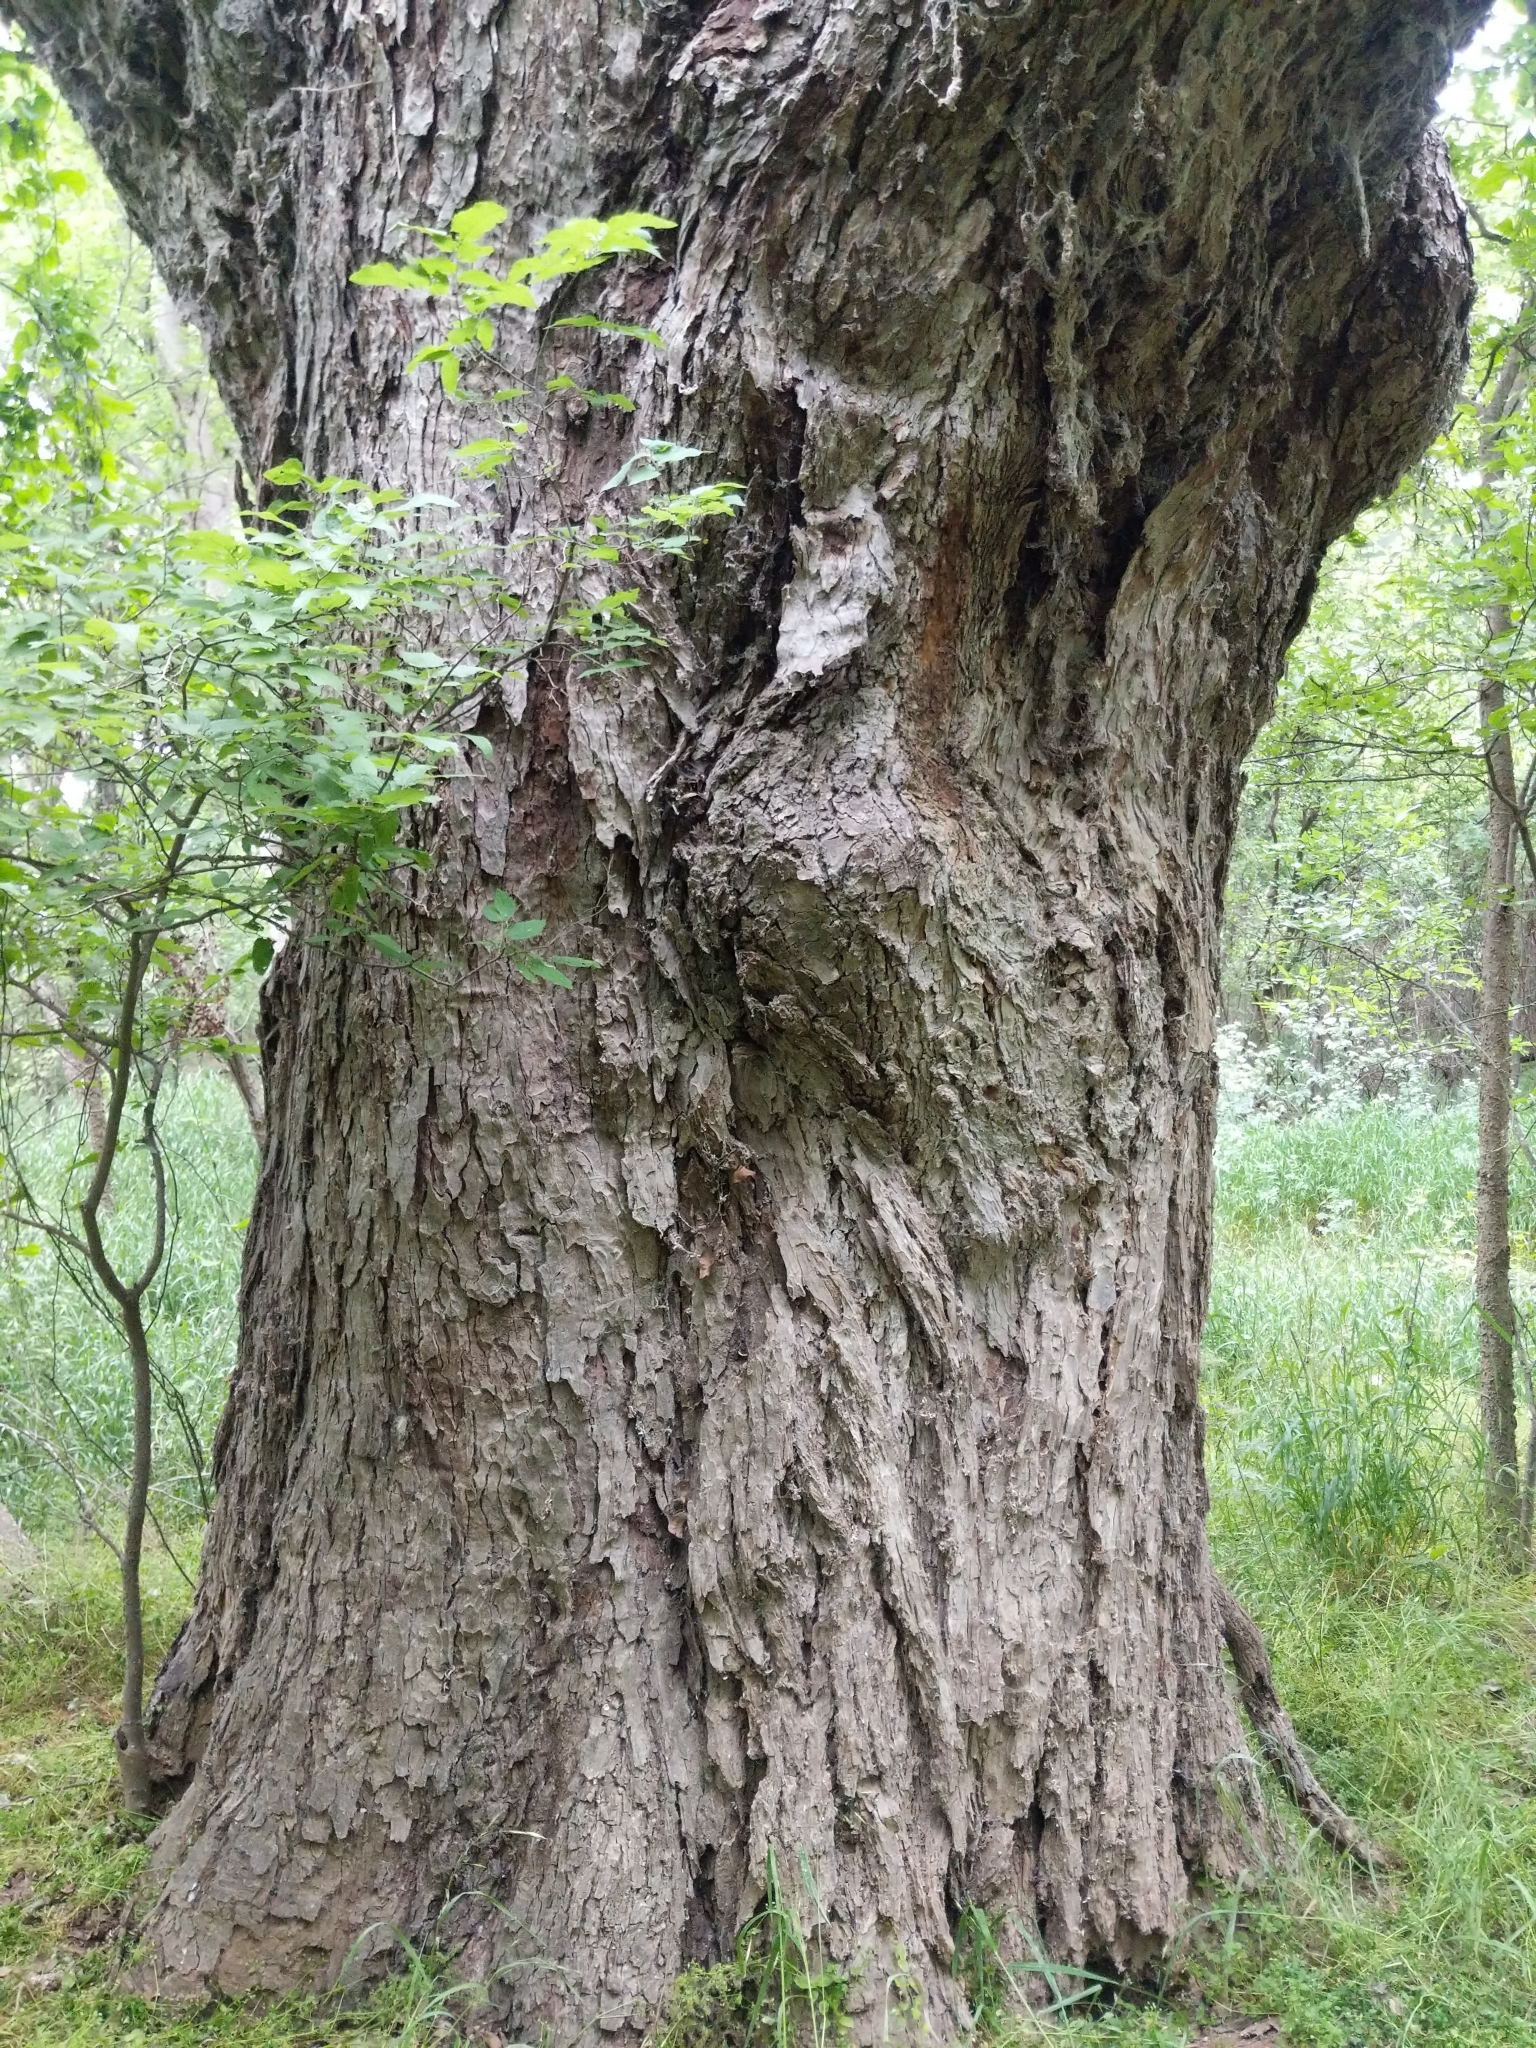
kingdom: Plantae
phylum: Tracheophyta
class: Magnoliopsida
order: Fagales
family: Juglandaceae
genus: Carya
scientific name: Carya illinoinensis
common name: Pecan
